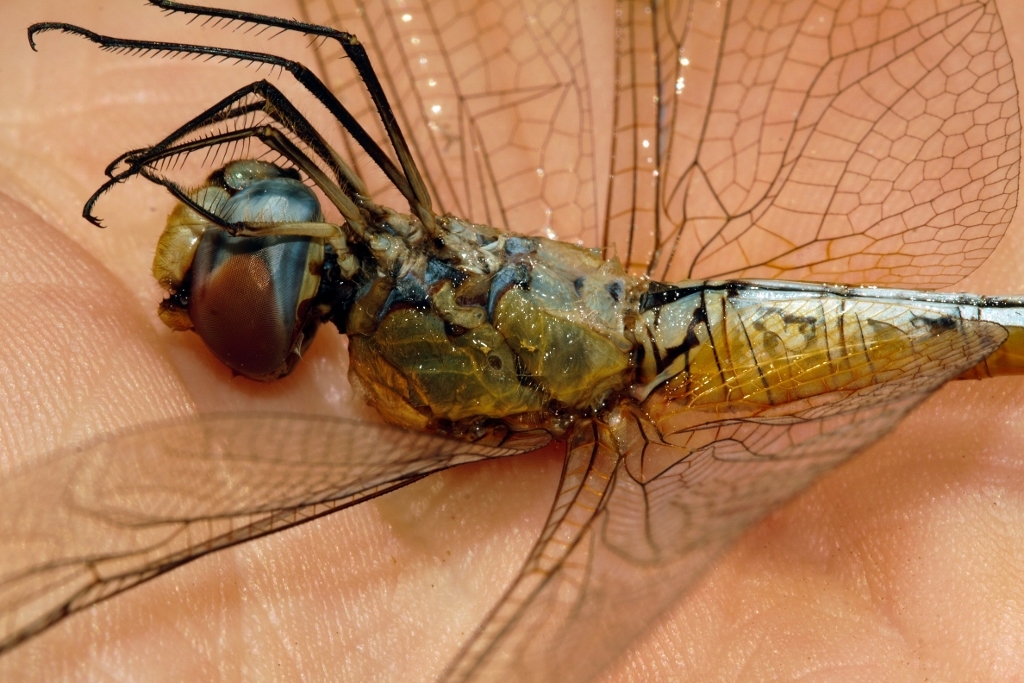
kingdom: Animalia
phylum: Arthropoda
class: Insecta
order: Odonata
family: Libellulidae
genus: Pantala
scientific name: Pantala flavescens
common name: Wandering glider
